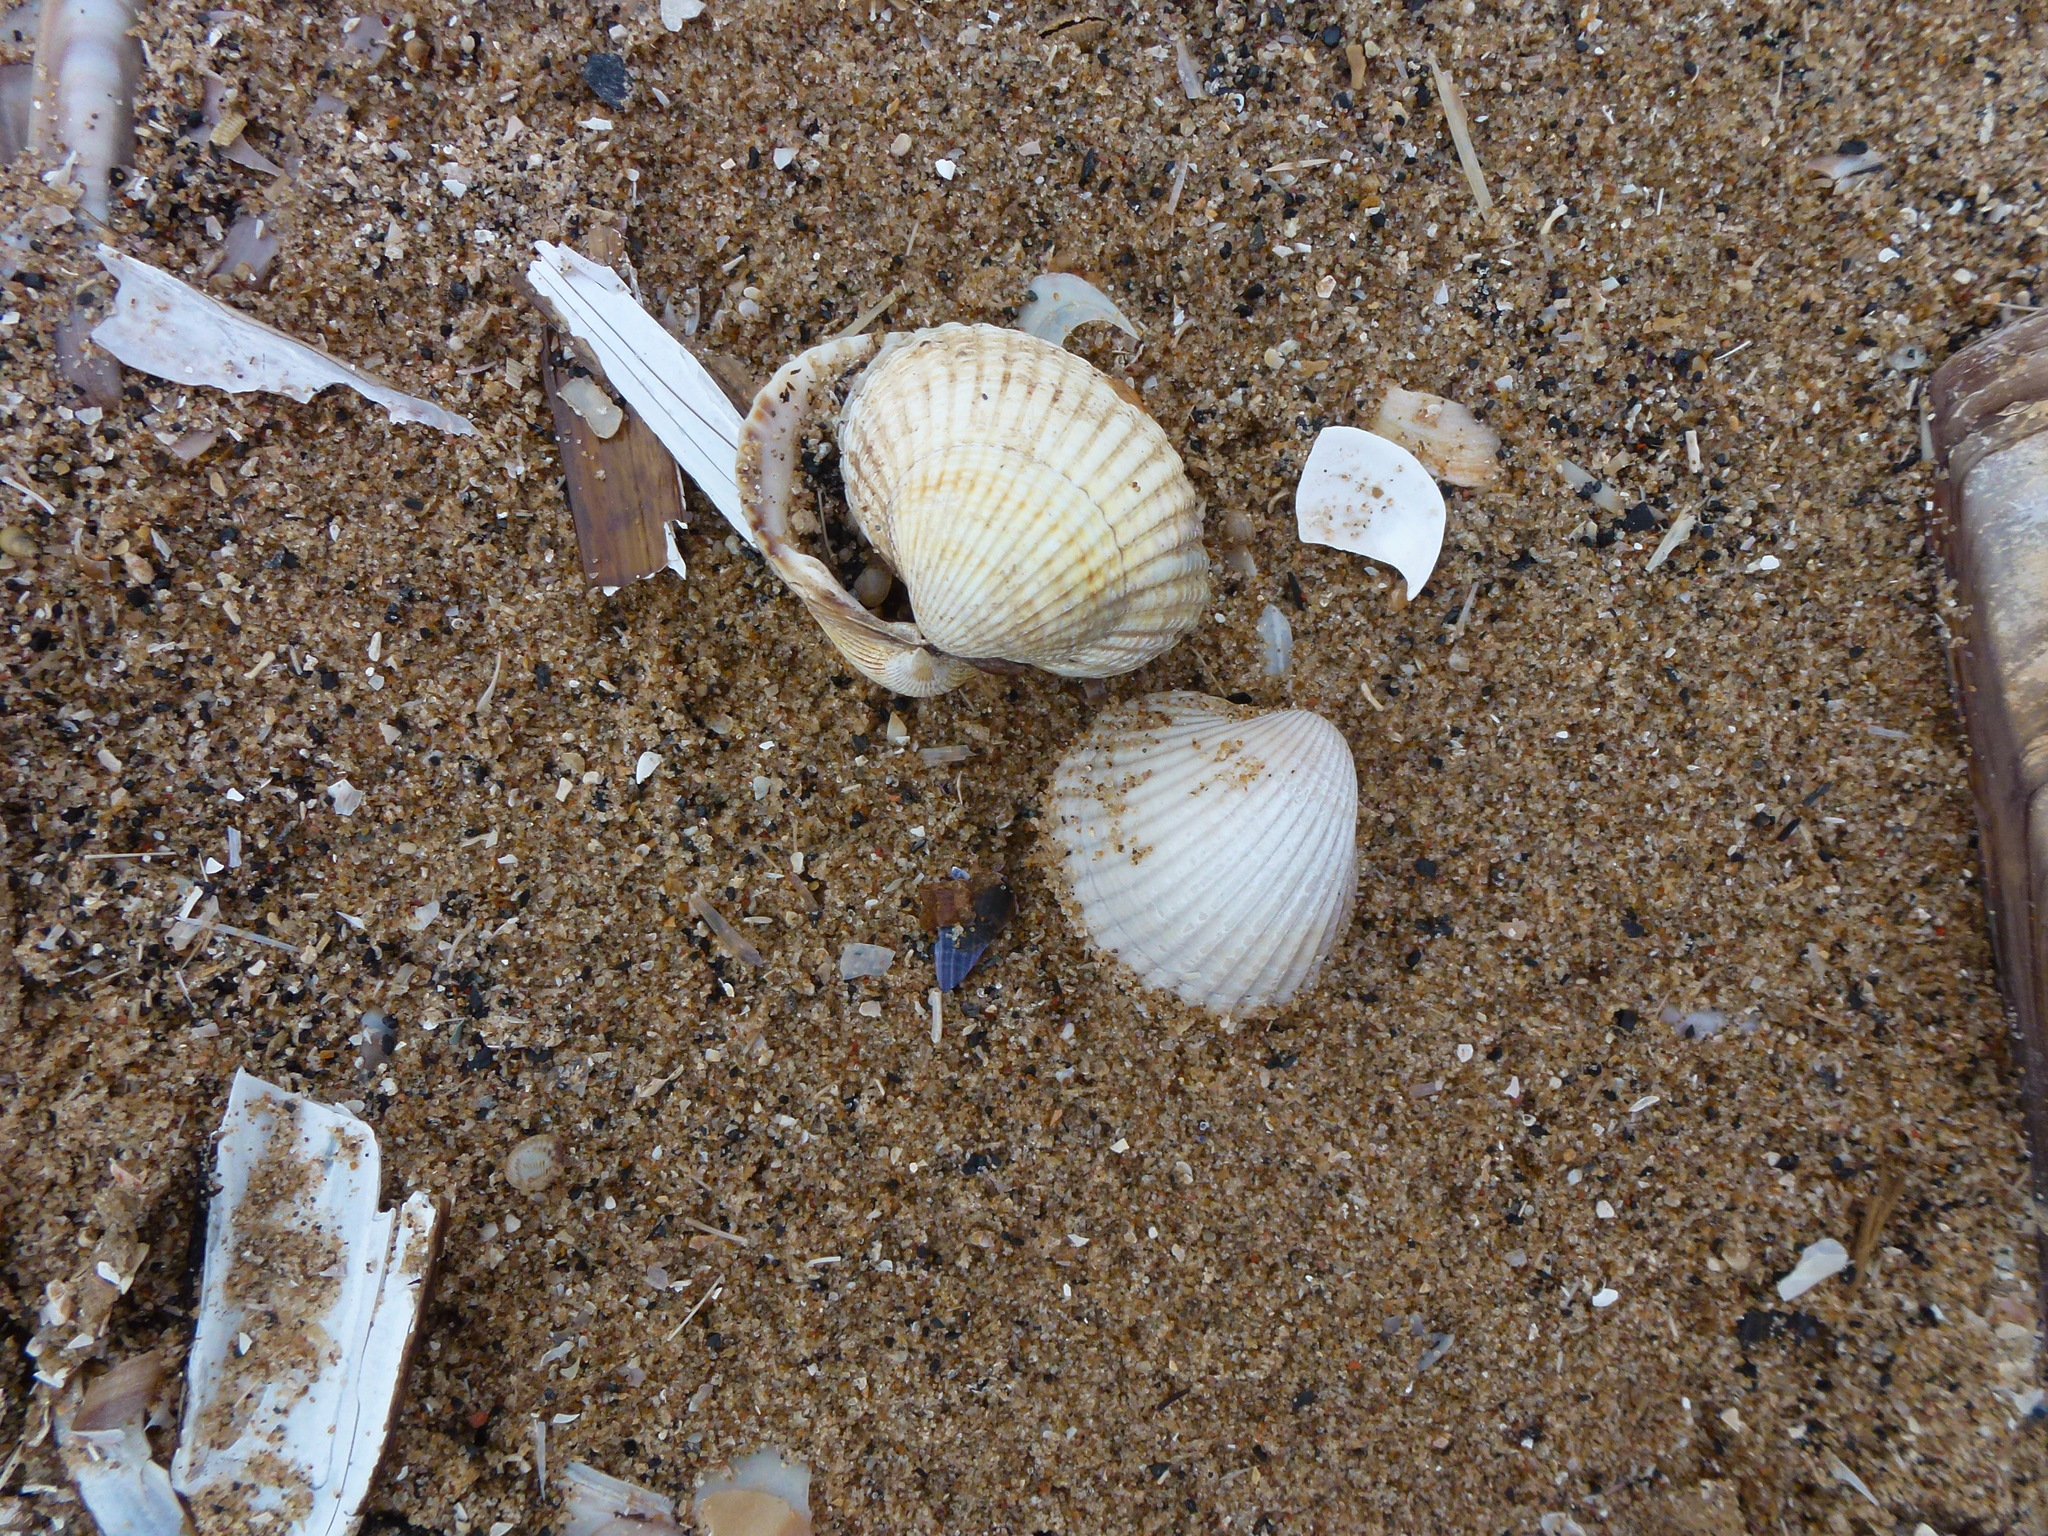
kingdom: Animalia
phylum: Mollusca
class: Bivalvia
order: Cardiida
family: Cardiidae
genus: Cerastoderma
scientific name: Cerastoderma edule
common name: Common cockle
